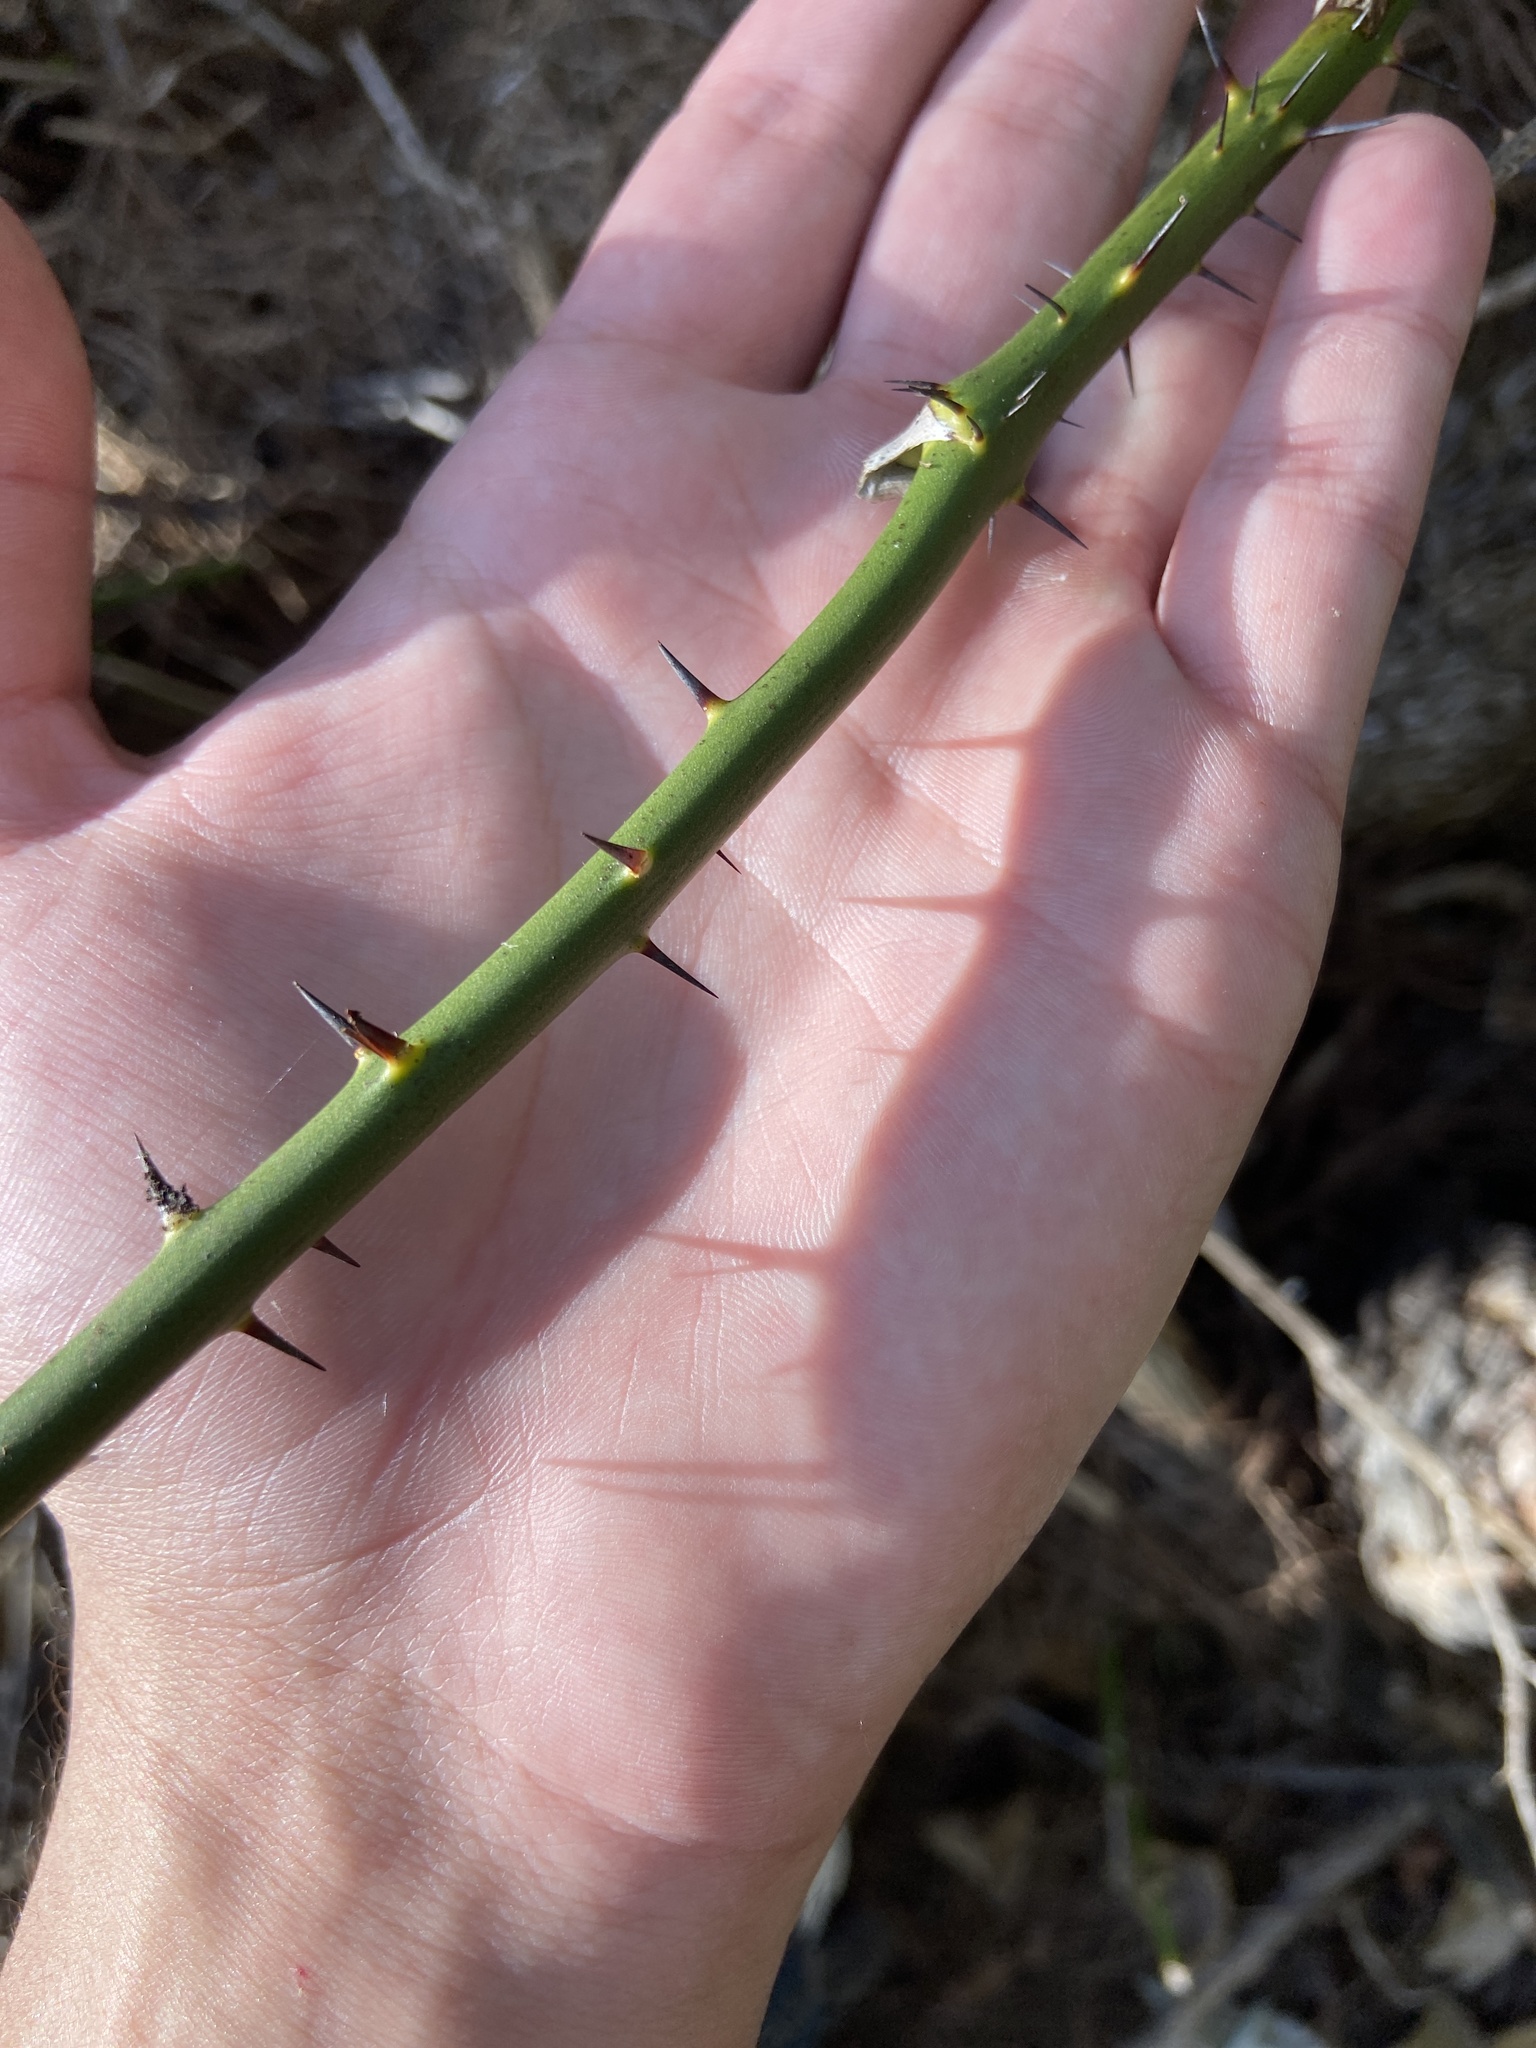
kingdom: Plantae
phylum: Tracheophyta
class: Liliopsida
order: Liliales
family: Smilacaceae
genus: Smilax
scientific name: Smilax bona-nox
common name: Catbrier
